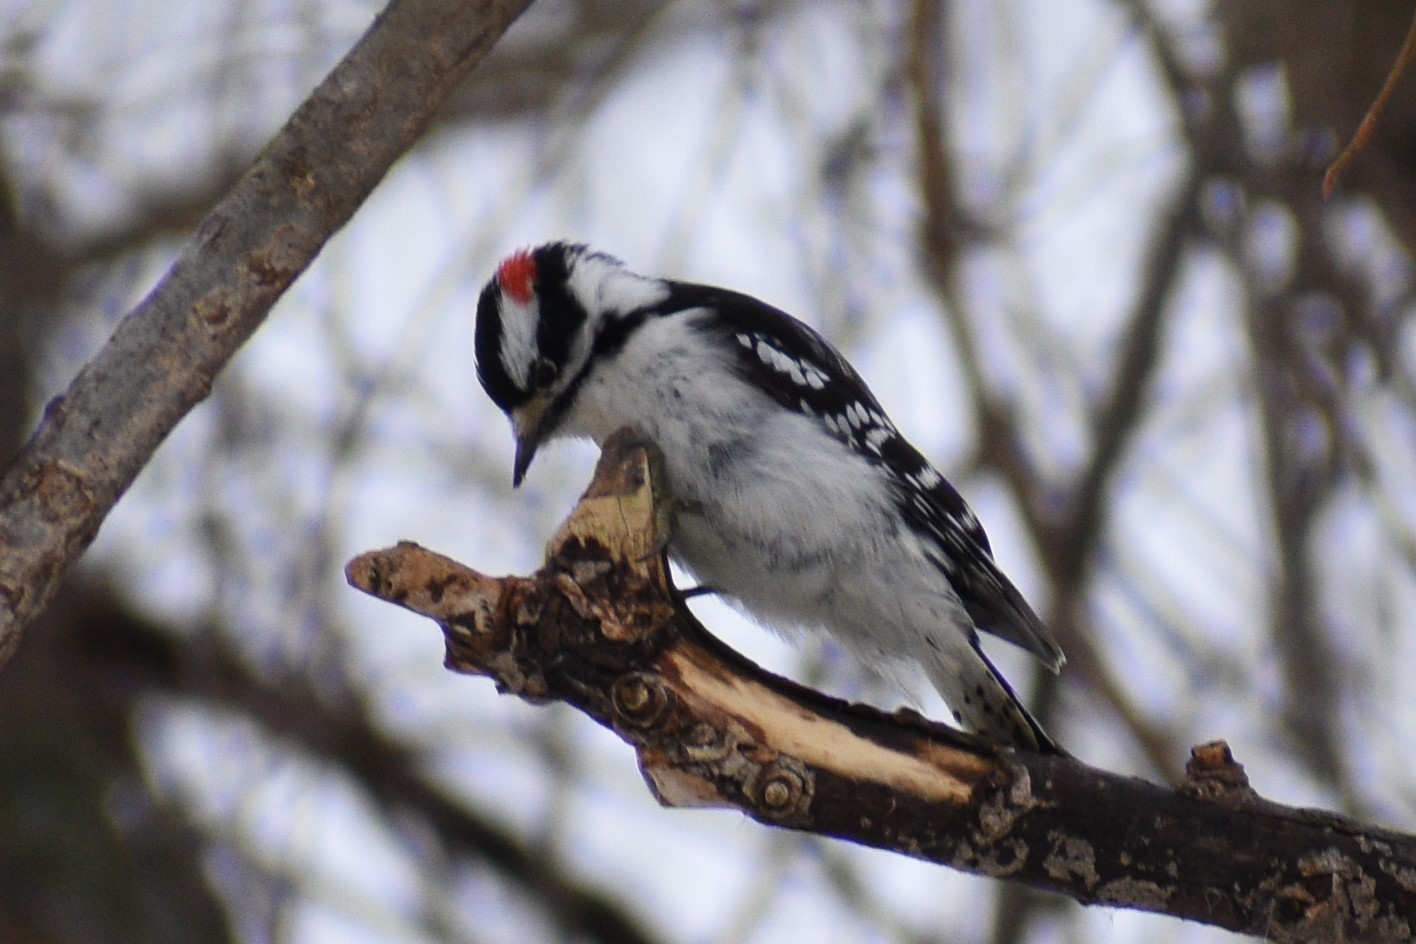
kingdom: Animalia
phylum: Chordata
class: Aves
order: Piciformes
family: Picidae
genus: Dryobates
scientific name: Dryobates pubescens
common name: Downy woodpecker
